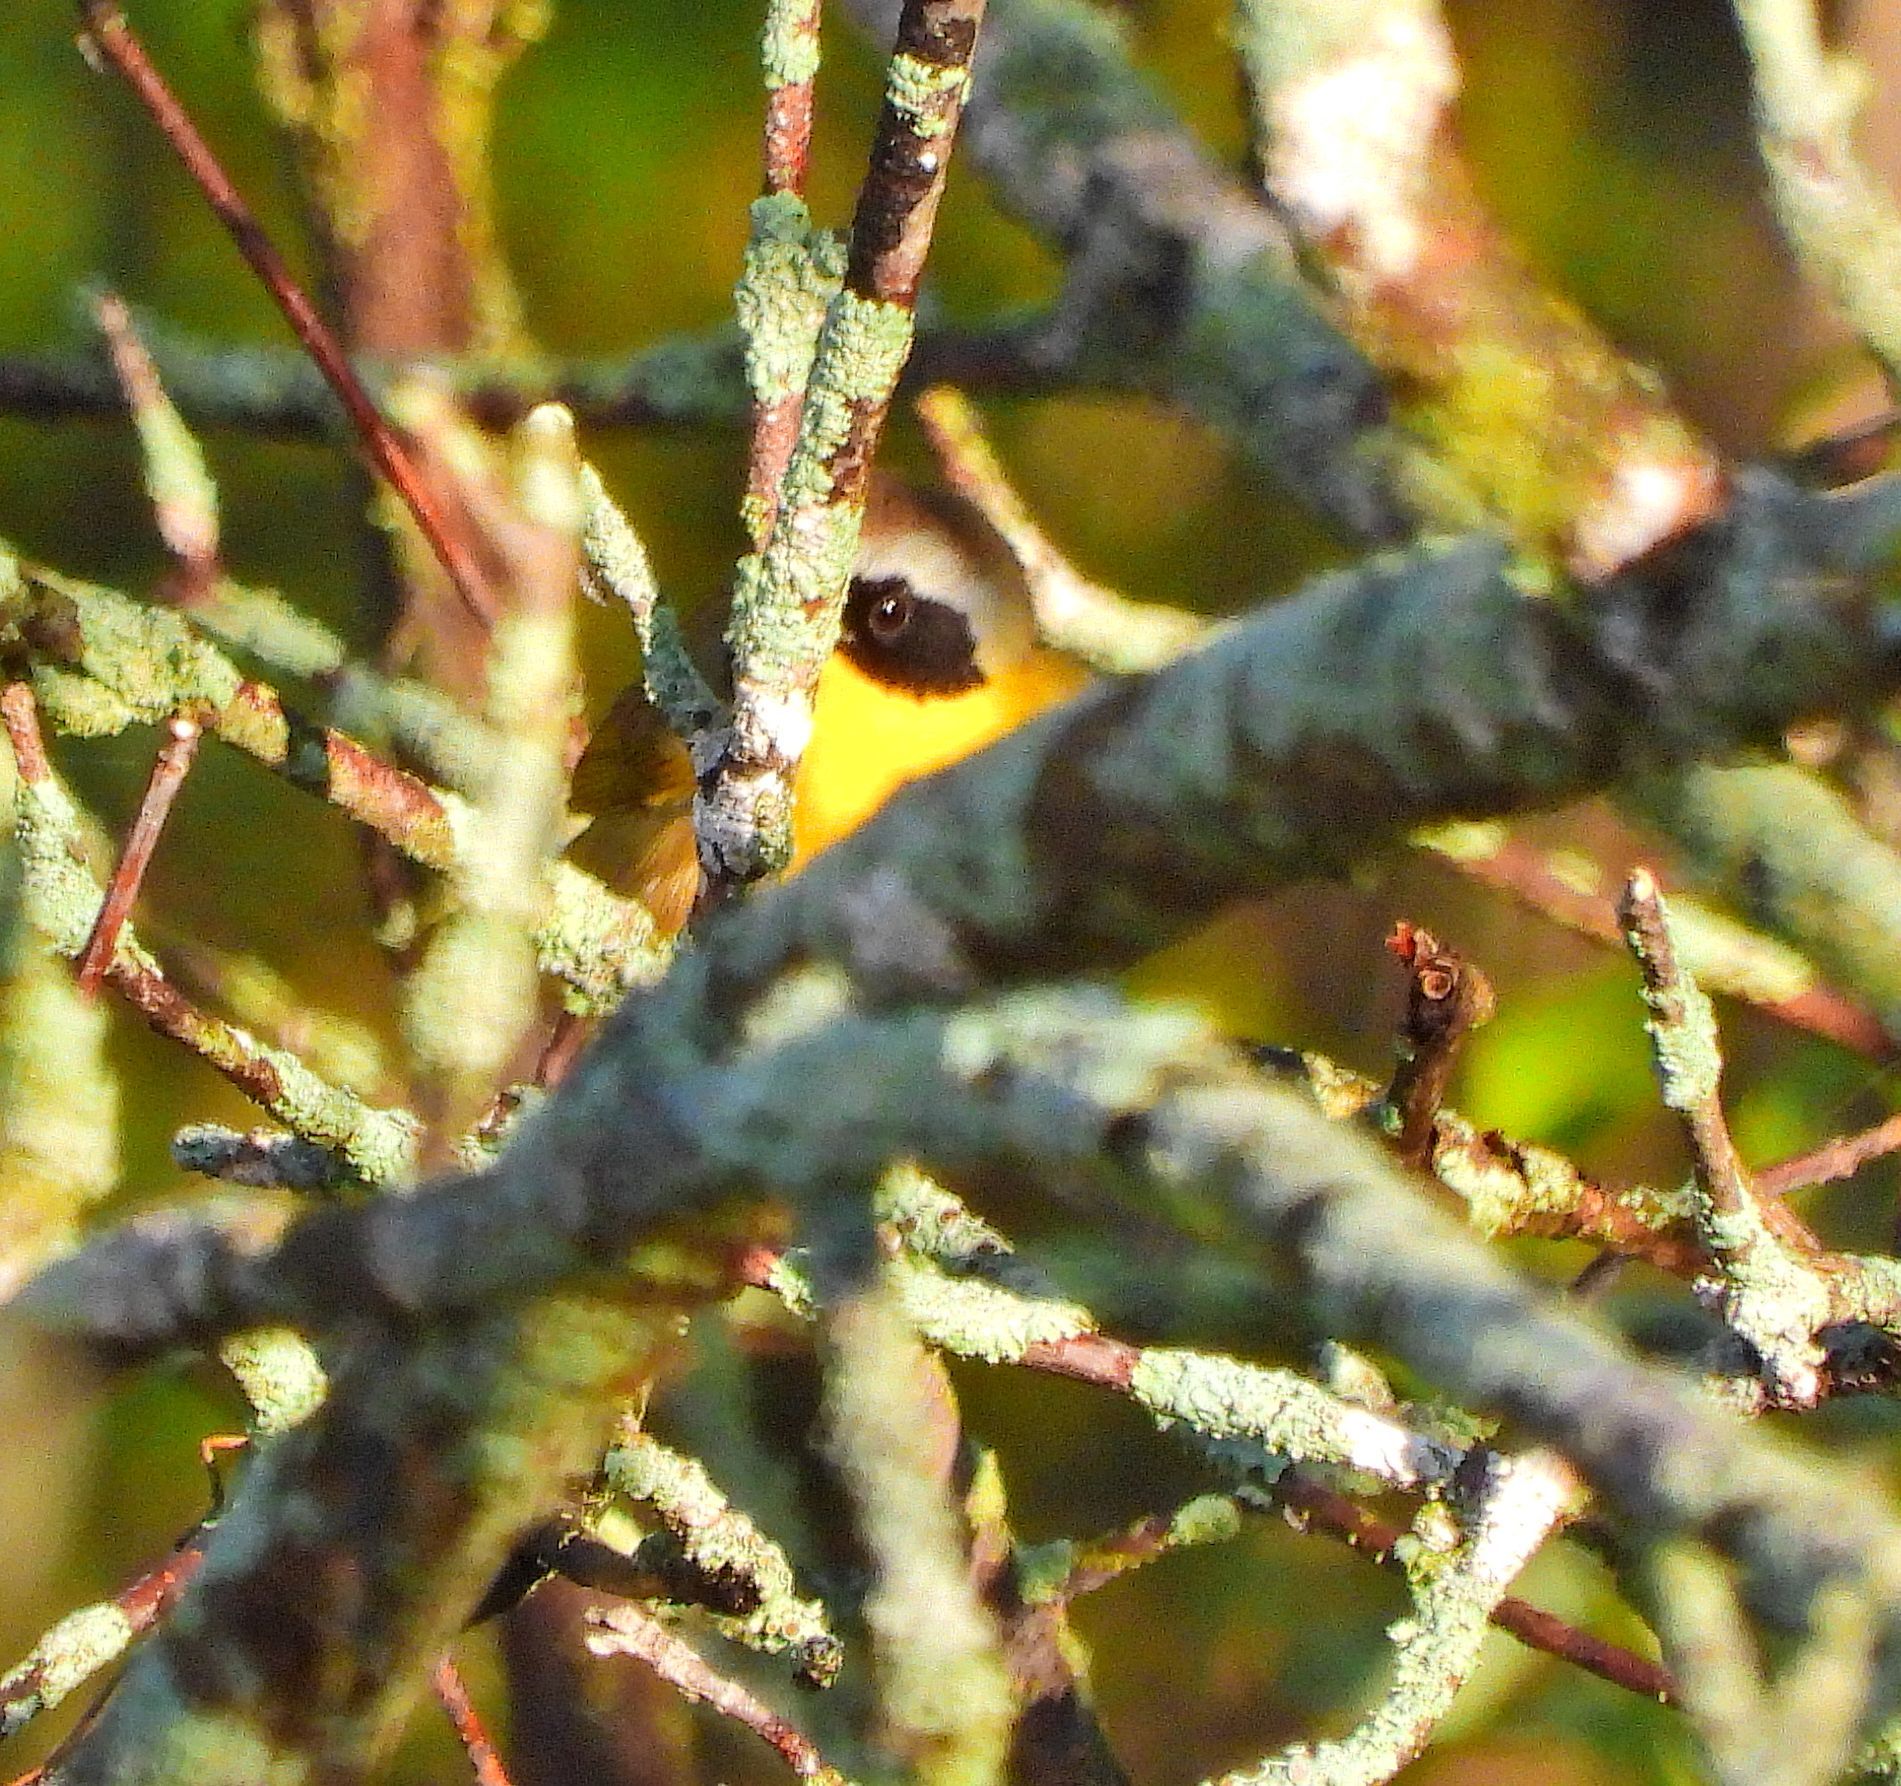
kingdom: Animalia
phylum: Chordata
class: Aves
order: Passeriformes
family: Parulidae
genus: Geothlypis
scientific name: Geothlypis trichas
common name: Common yellowthroat
